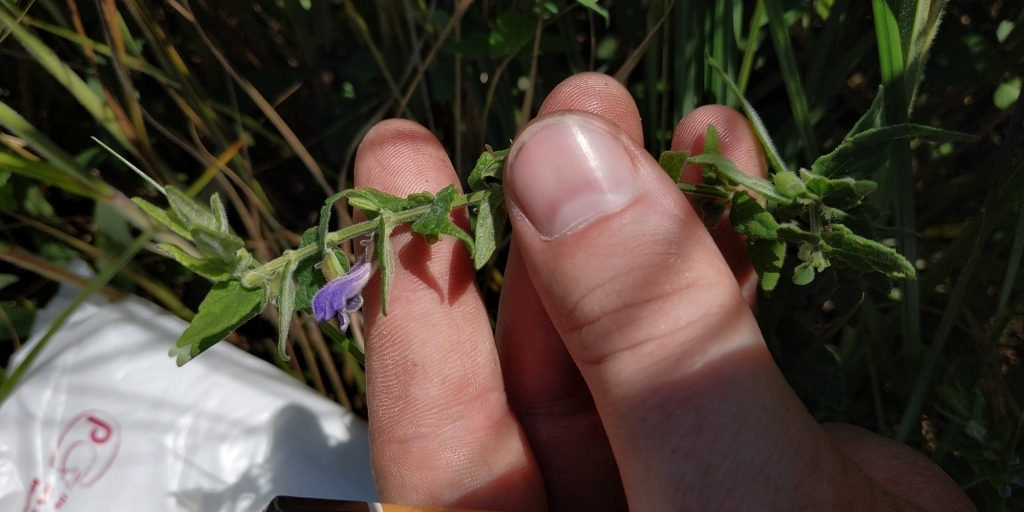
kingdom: Plantae
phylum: Tracheophyta
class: Magnoliopsida
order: Lamiales
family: Lamiaceae
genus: Scutellaria
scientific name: Scutellaria galericulata
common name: Skullcap
